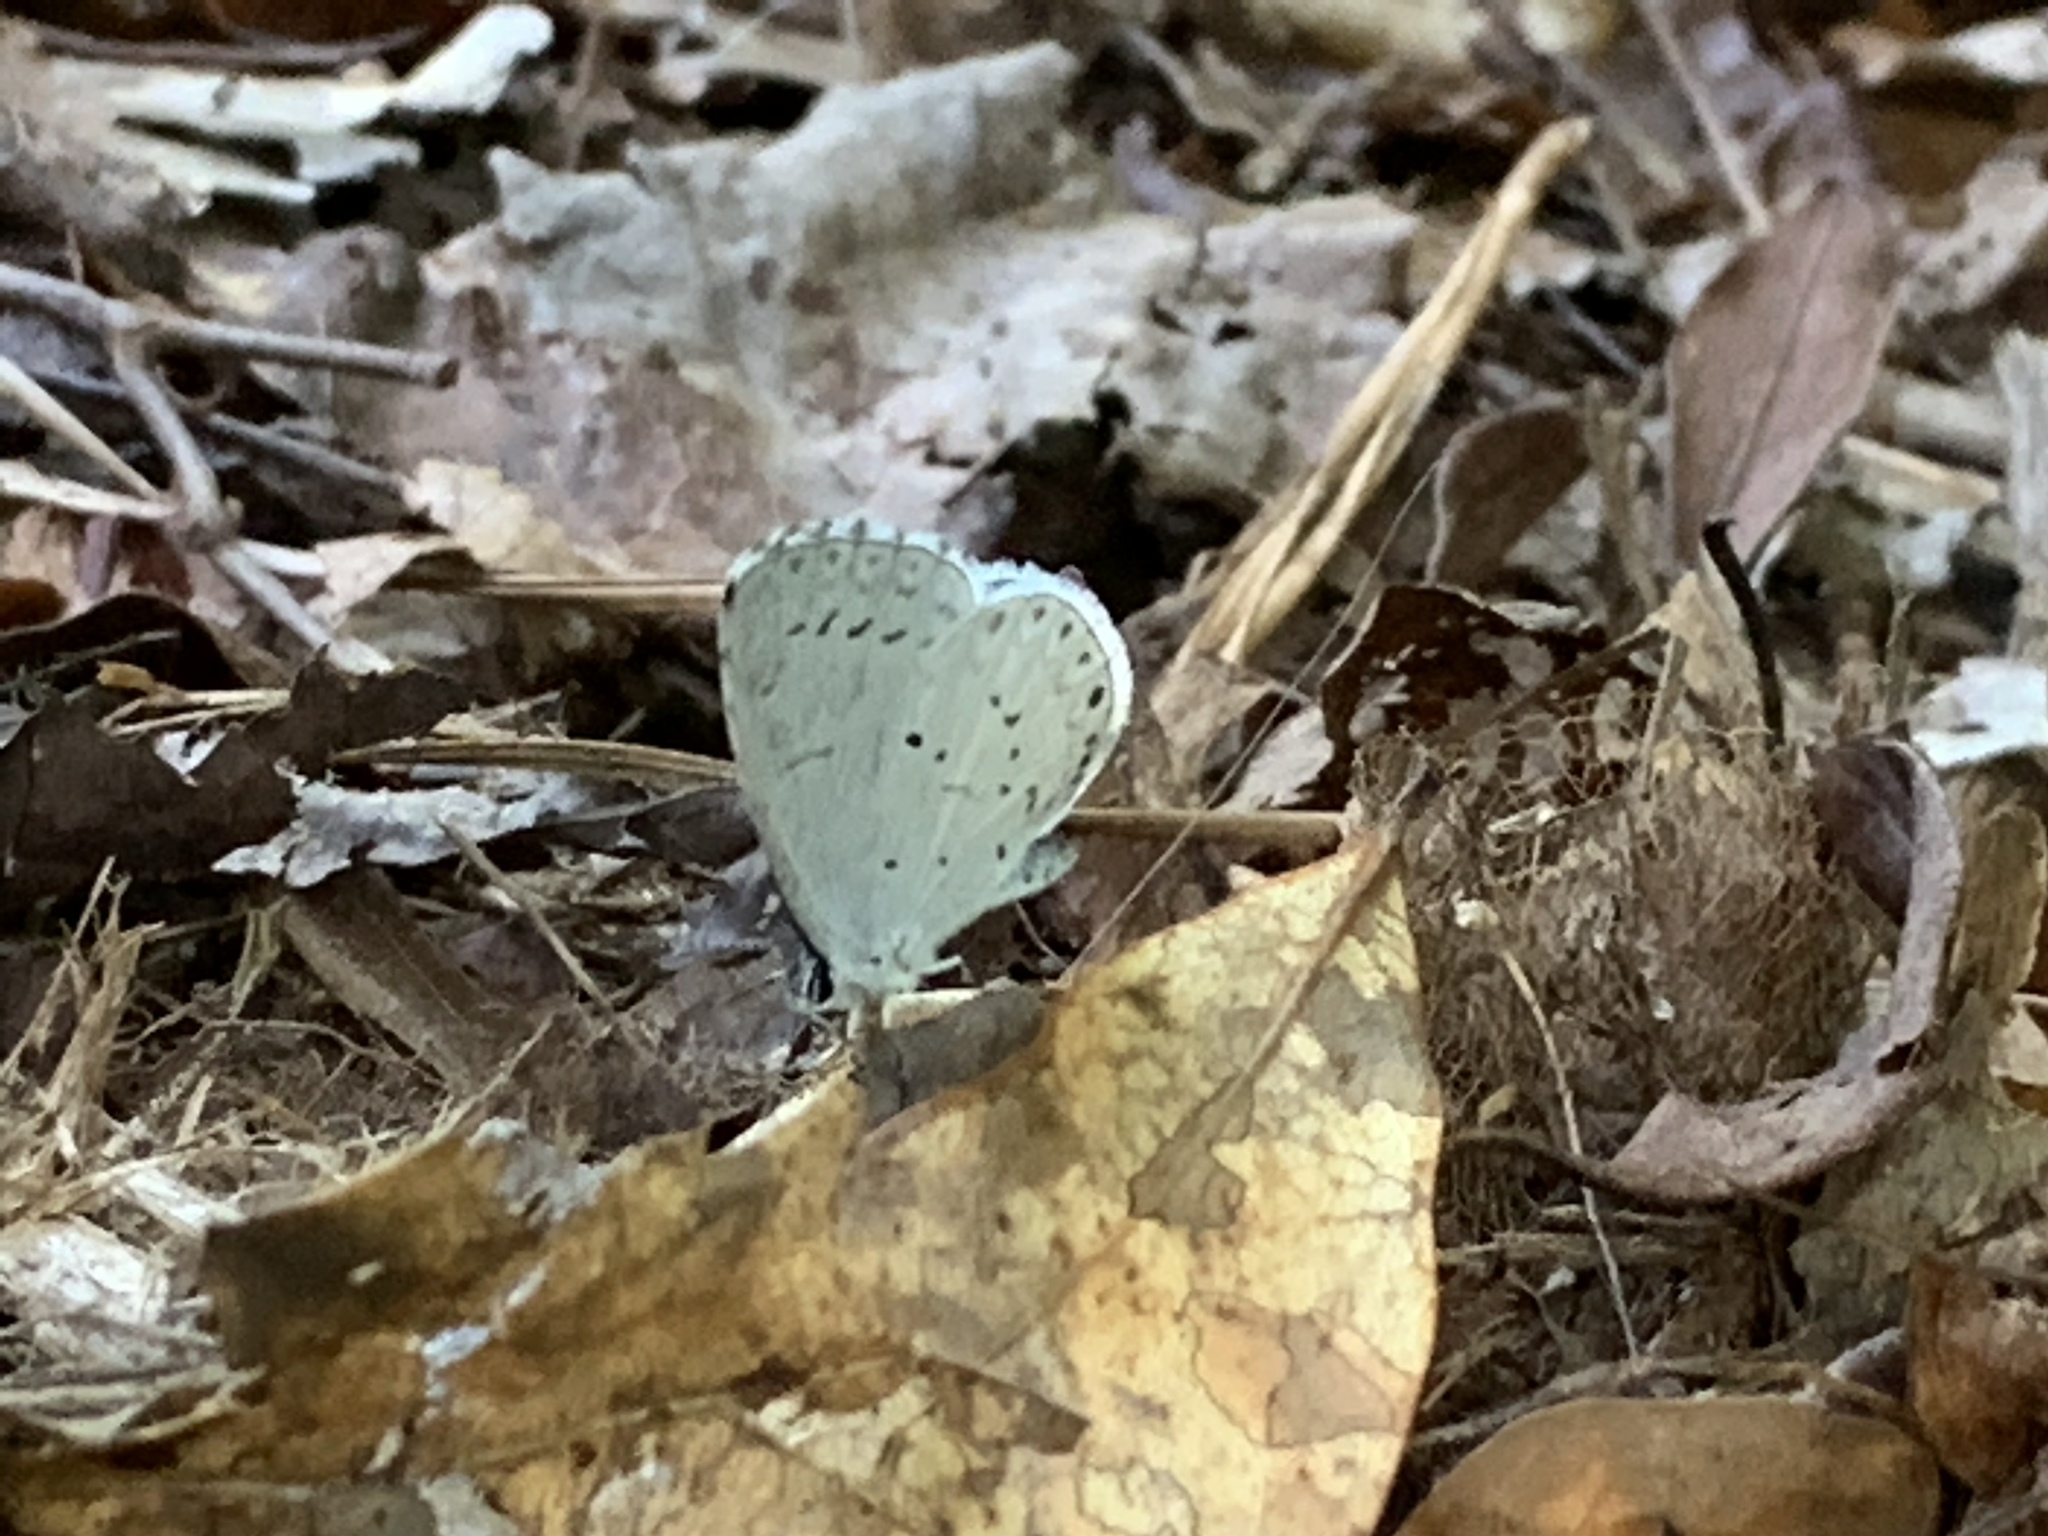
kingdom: Animalia
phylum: Arthropoda
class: Insecta
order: Lepidoptera
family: Lycaenidae
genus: Cyaniris
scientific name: Cyaniris neglecta
